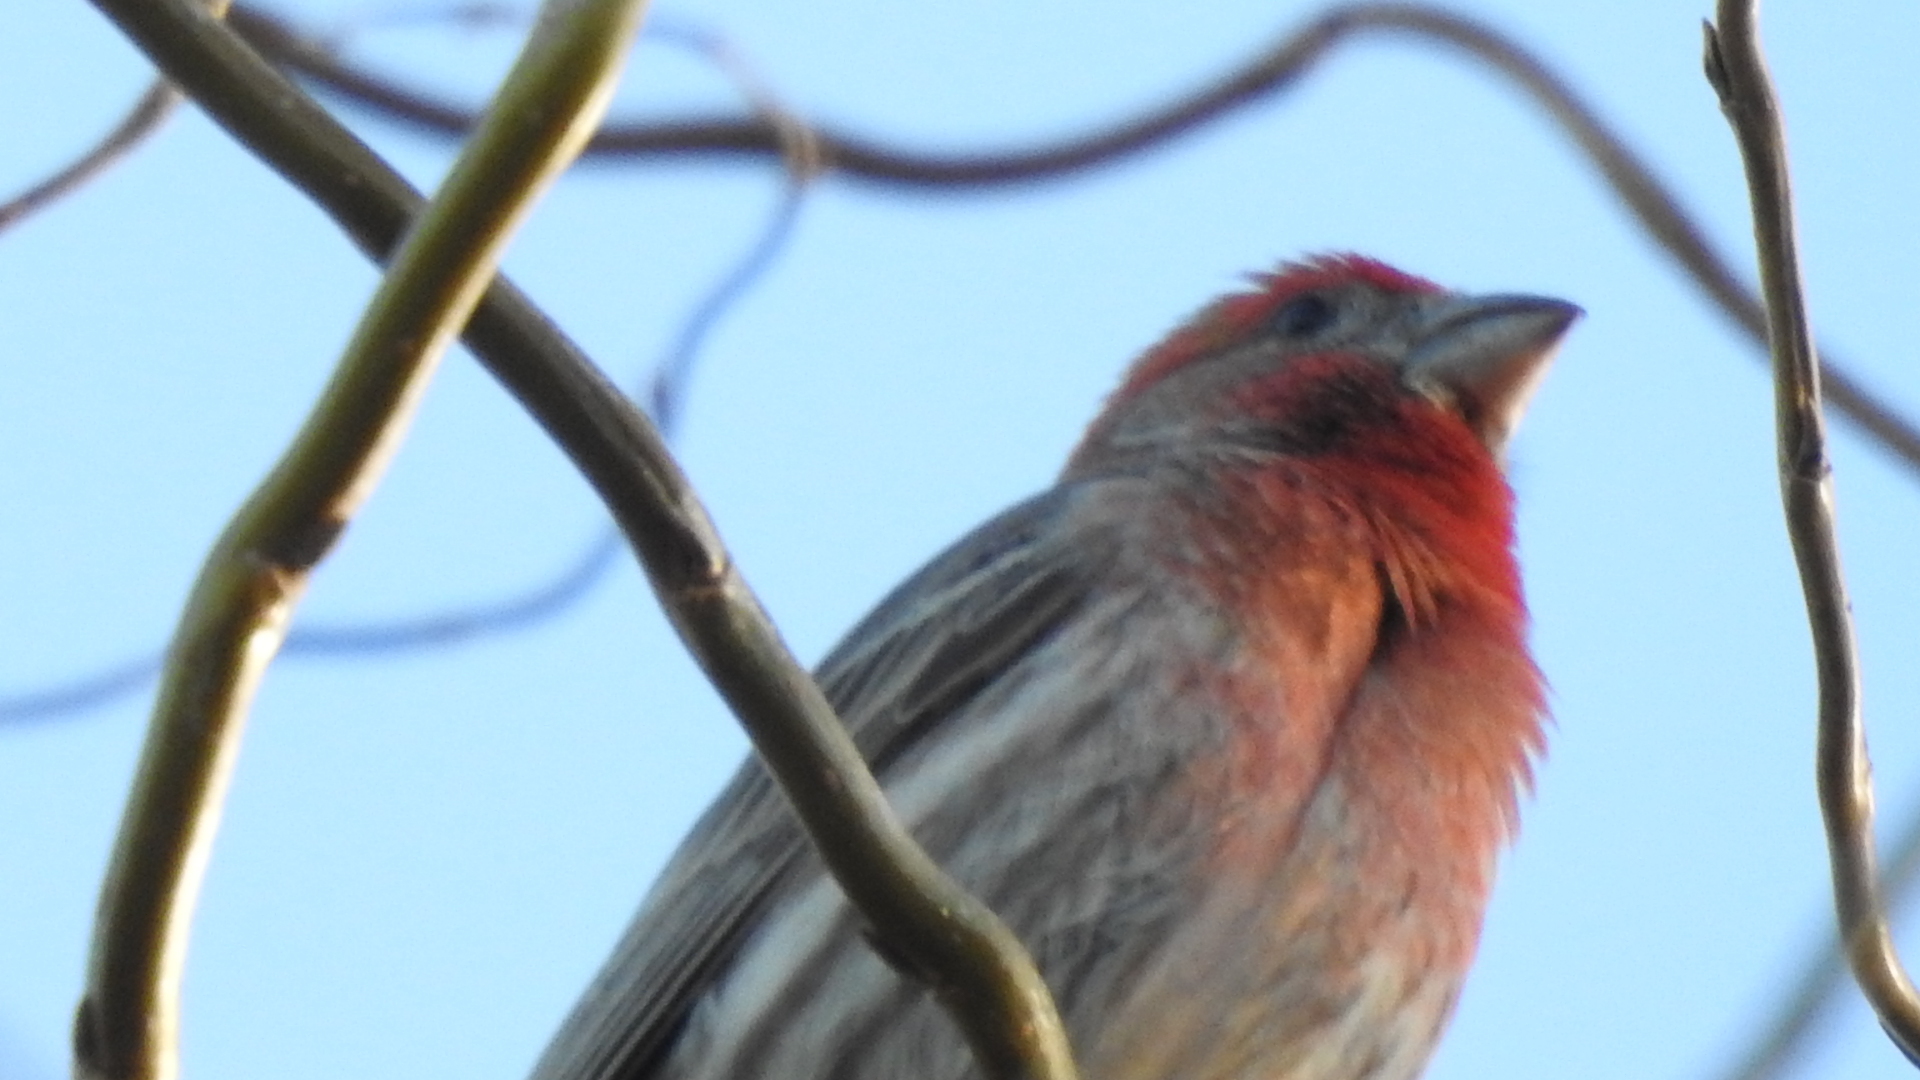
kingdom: Animalia
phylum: Chordata
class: Aves
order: Passeriformes
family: Fringillidae
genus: Haemorhous
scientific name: Haemorhous mexicanus
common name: House finch
